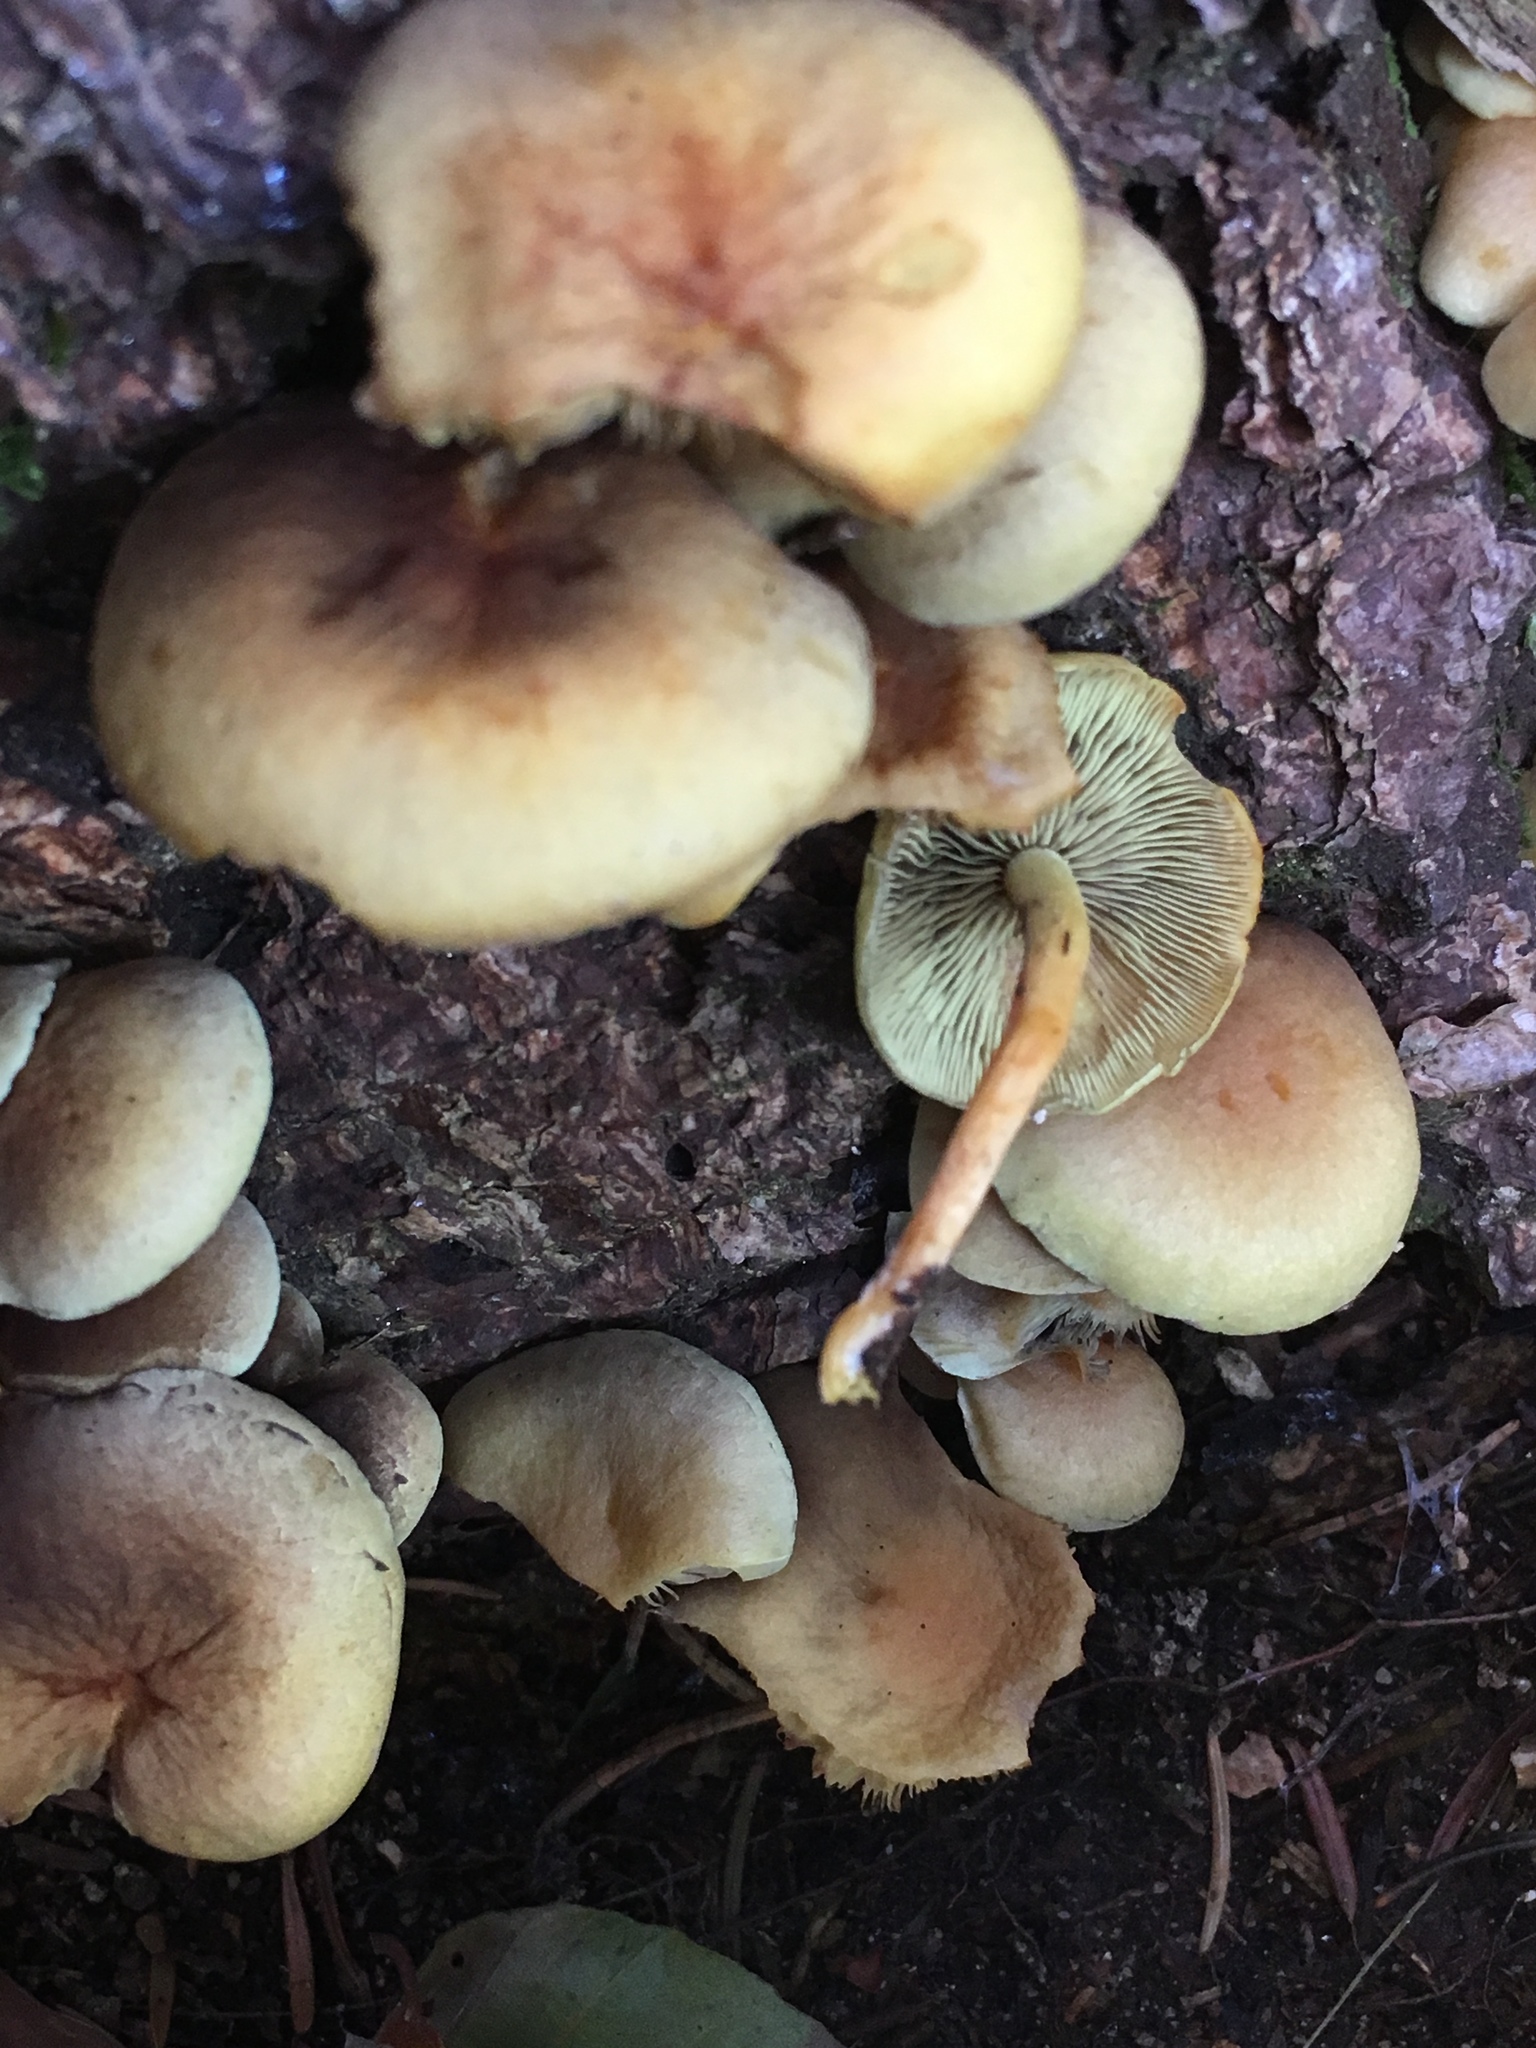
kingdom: Fungi
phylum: Basidiomycota
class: Agaricomycetes
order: Agaricales
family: Strophariaceae
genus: Hypholoma
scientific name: Hypholoma fasciculare
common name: Sulphur tuft
